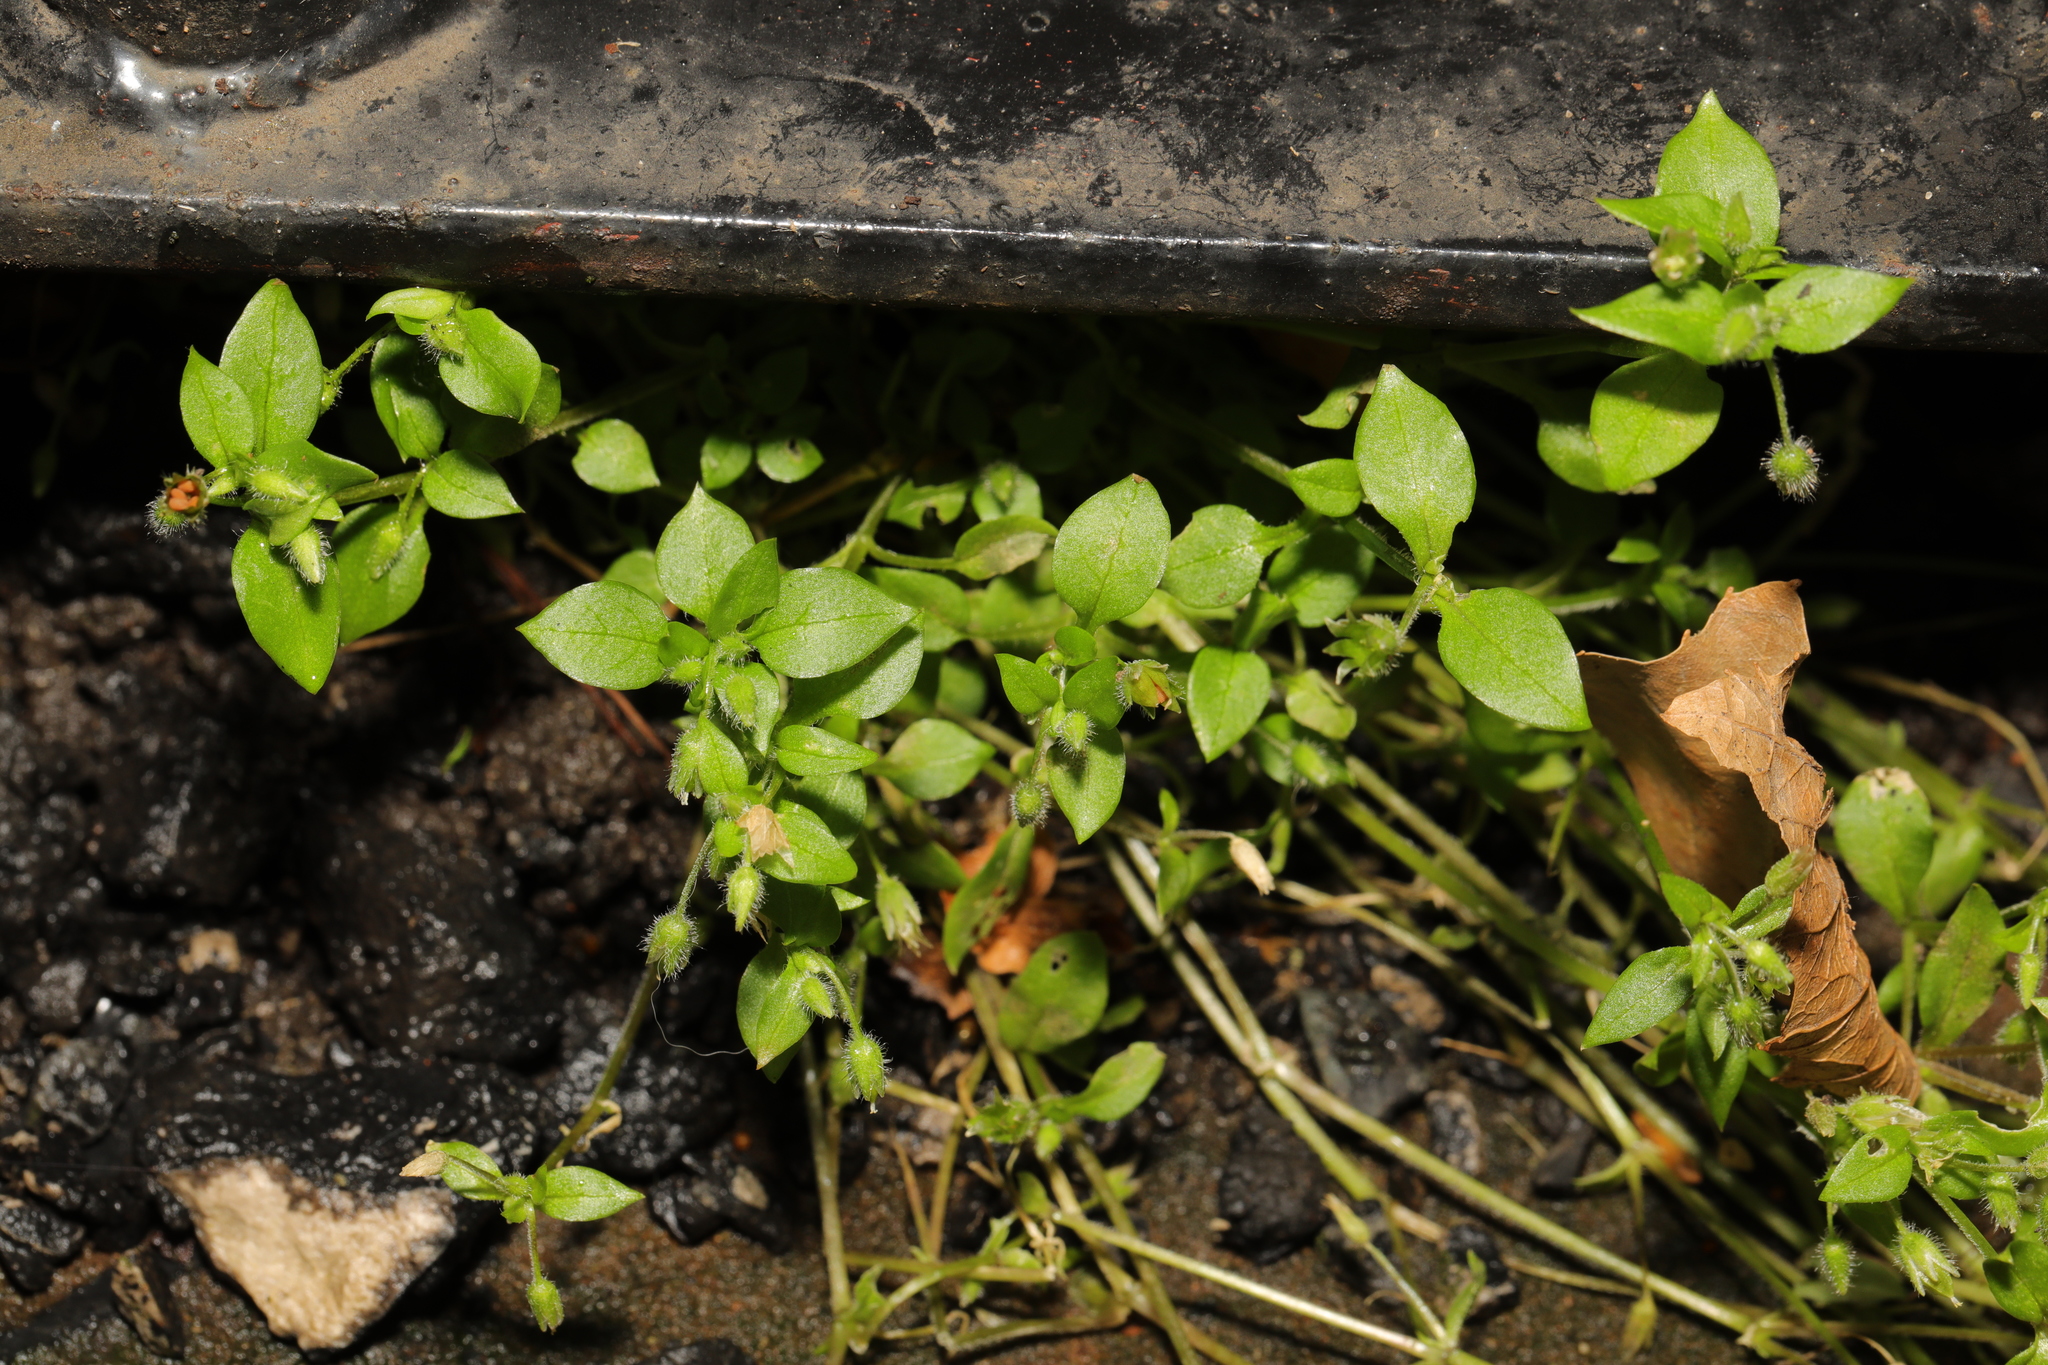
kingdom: Plantae
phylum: Tracheophyta
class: Magnoliopsida
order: Caryophyllales
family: Caryophyllaceae
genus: Stellaria
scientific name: Stellaria media
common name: Common chickweed
